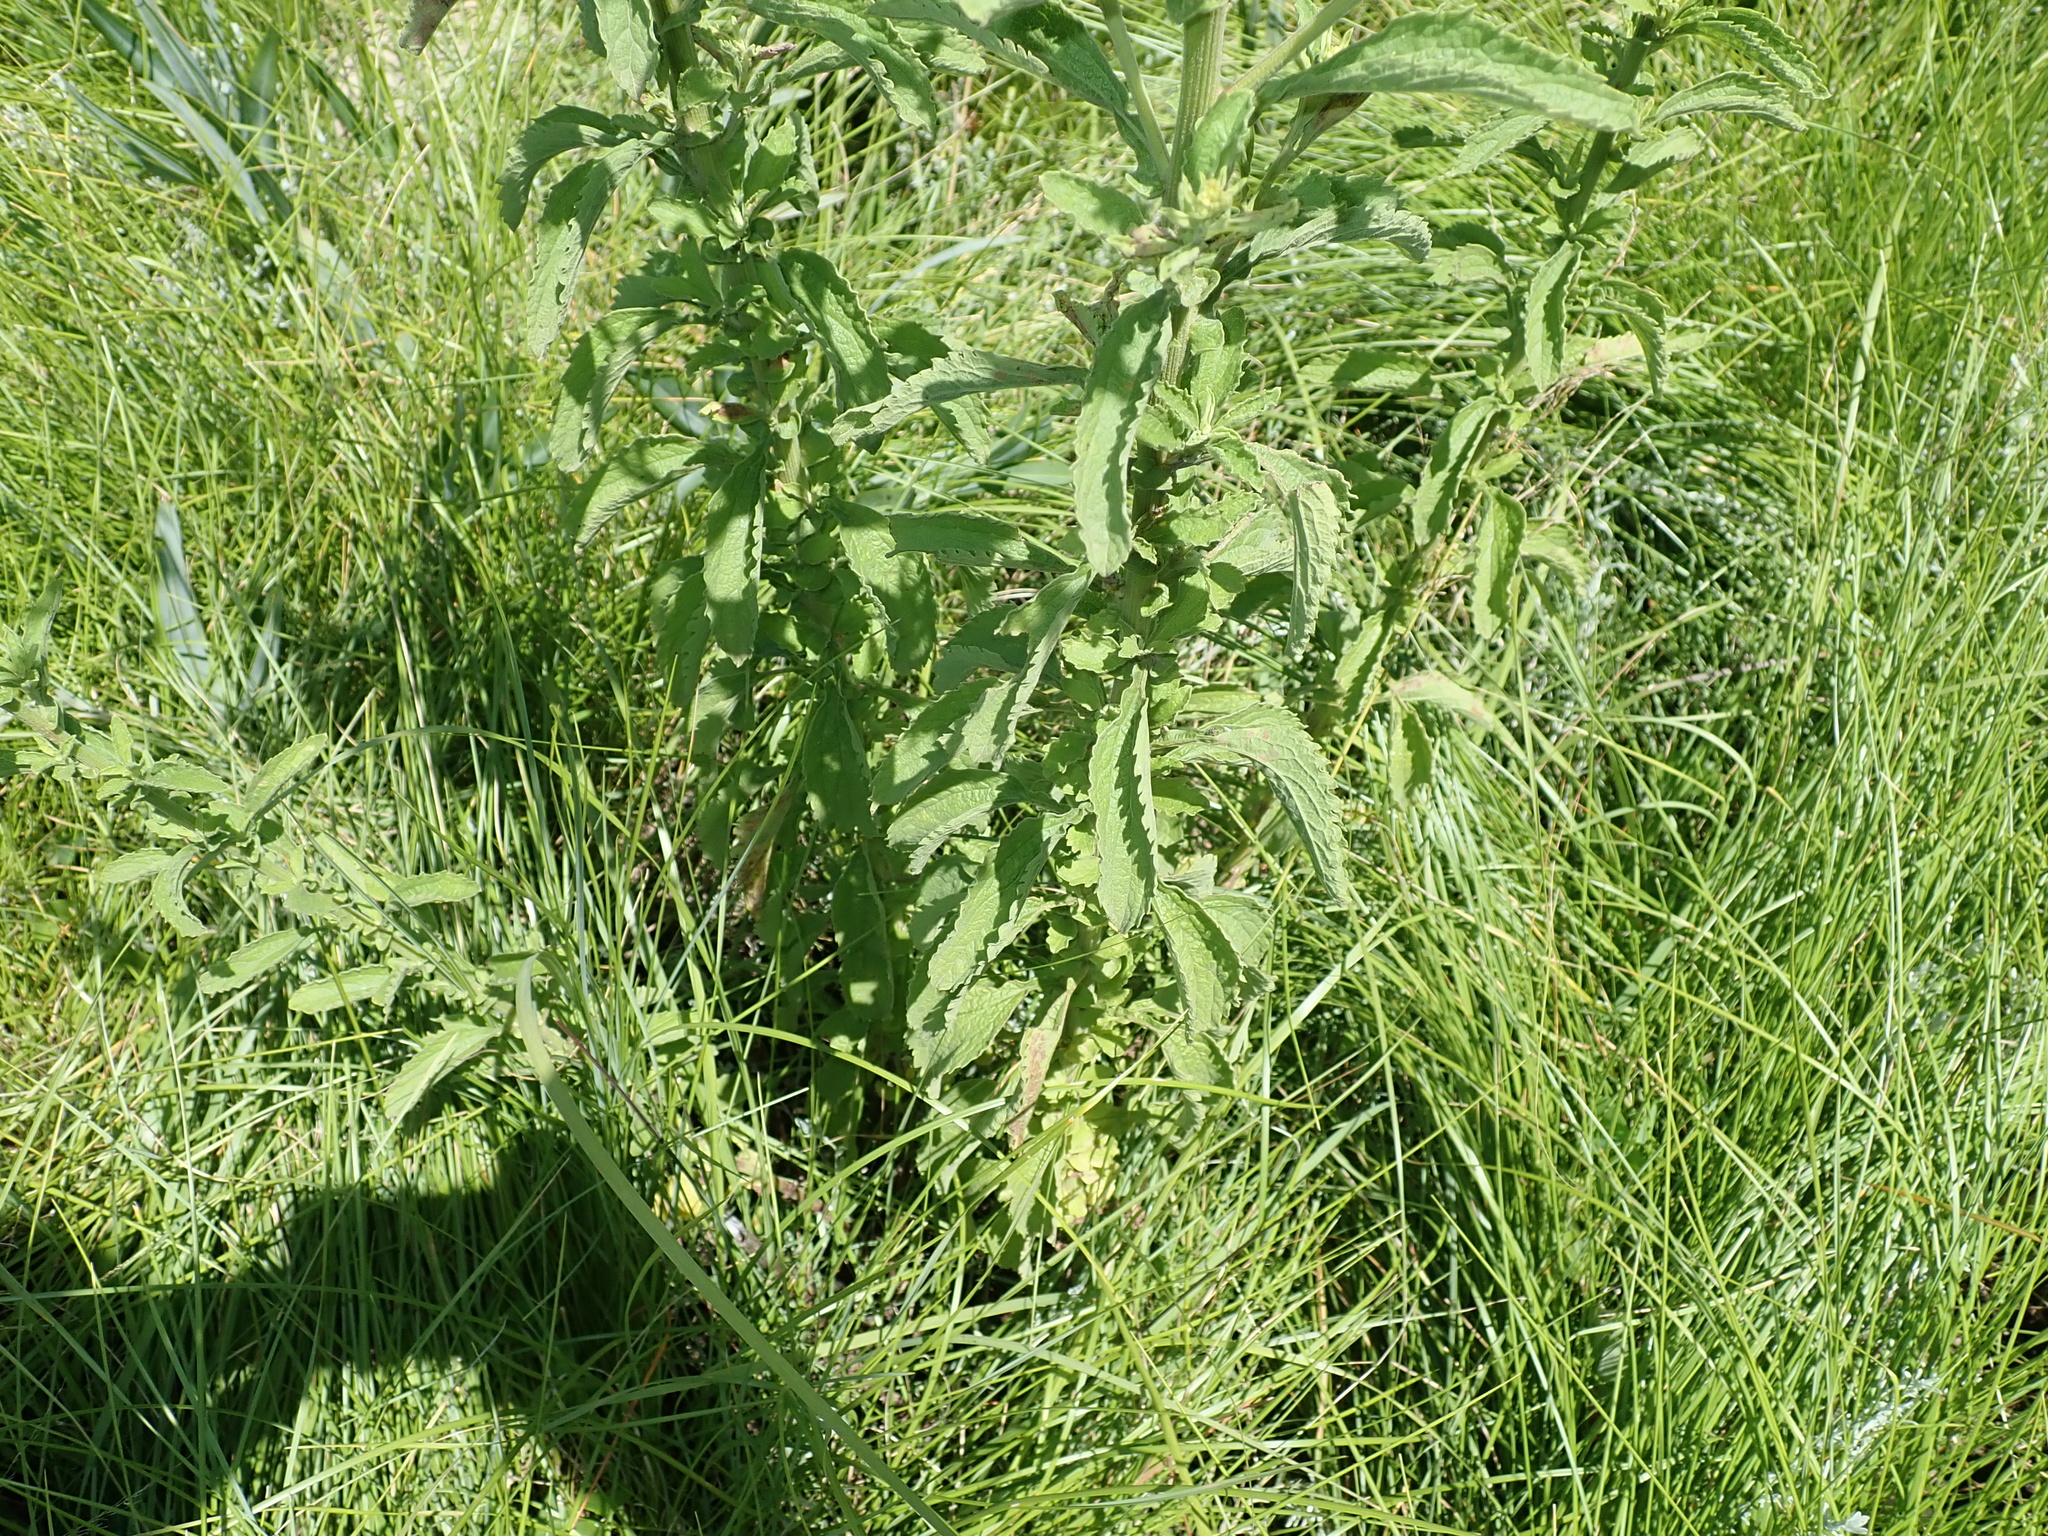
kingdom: Plantae
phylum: Tracheophyta
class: Magnoliopsida
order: Asterales
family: Asteraceae
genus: Nidorella
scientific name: Nidorella auriculata
